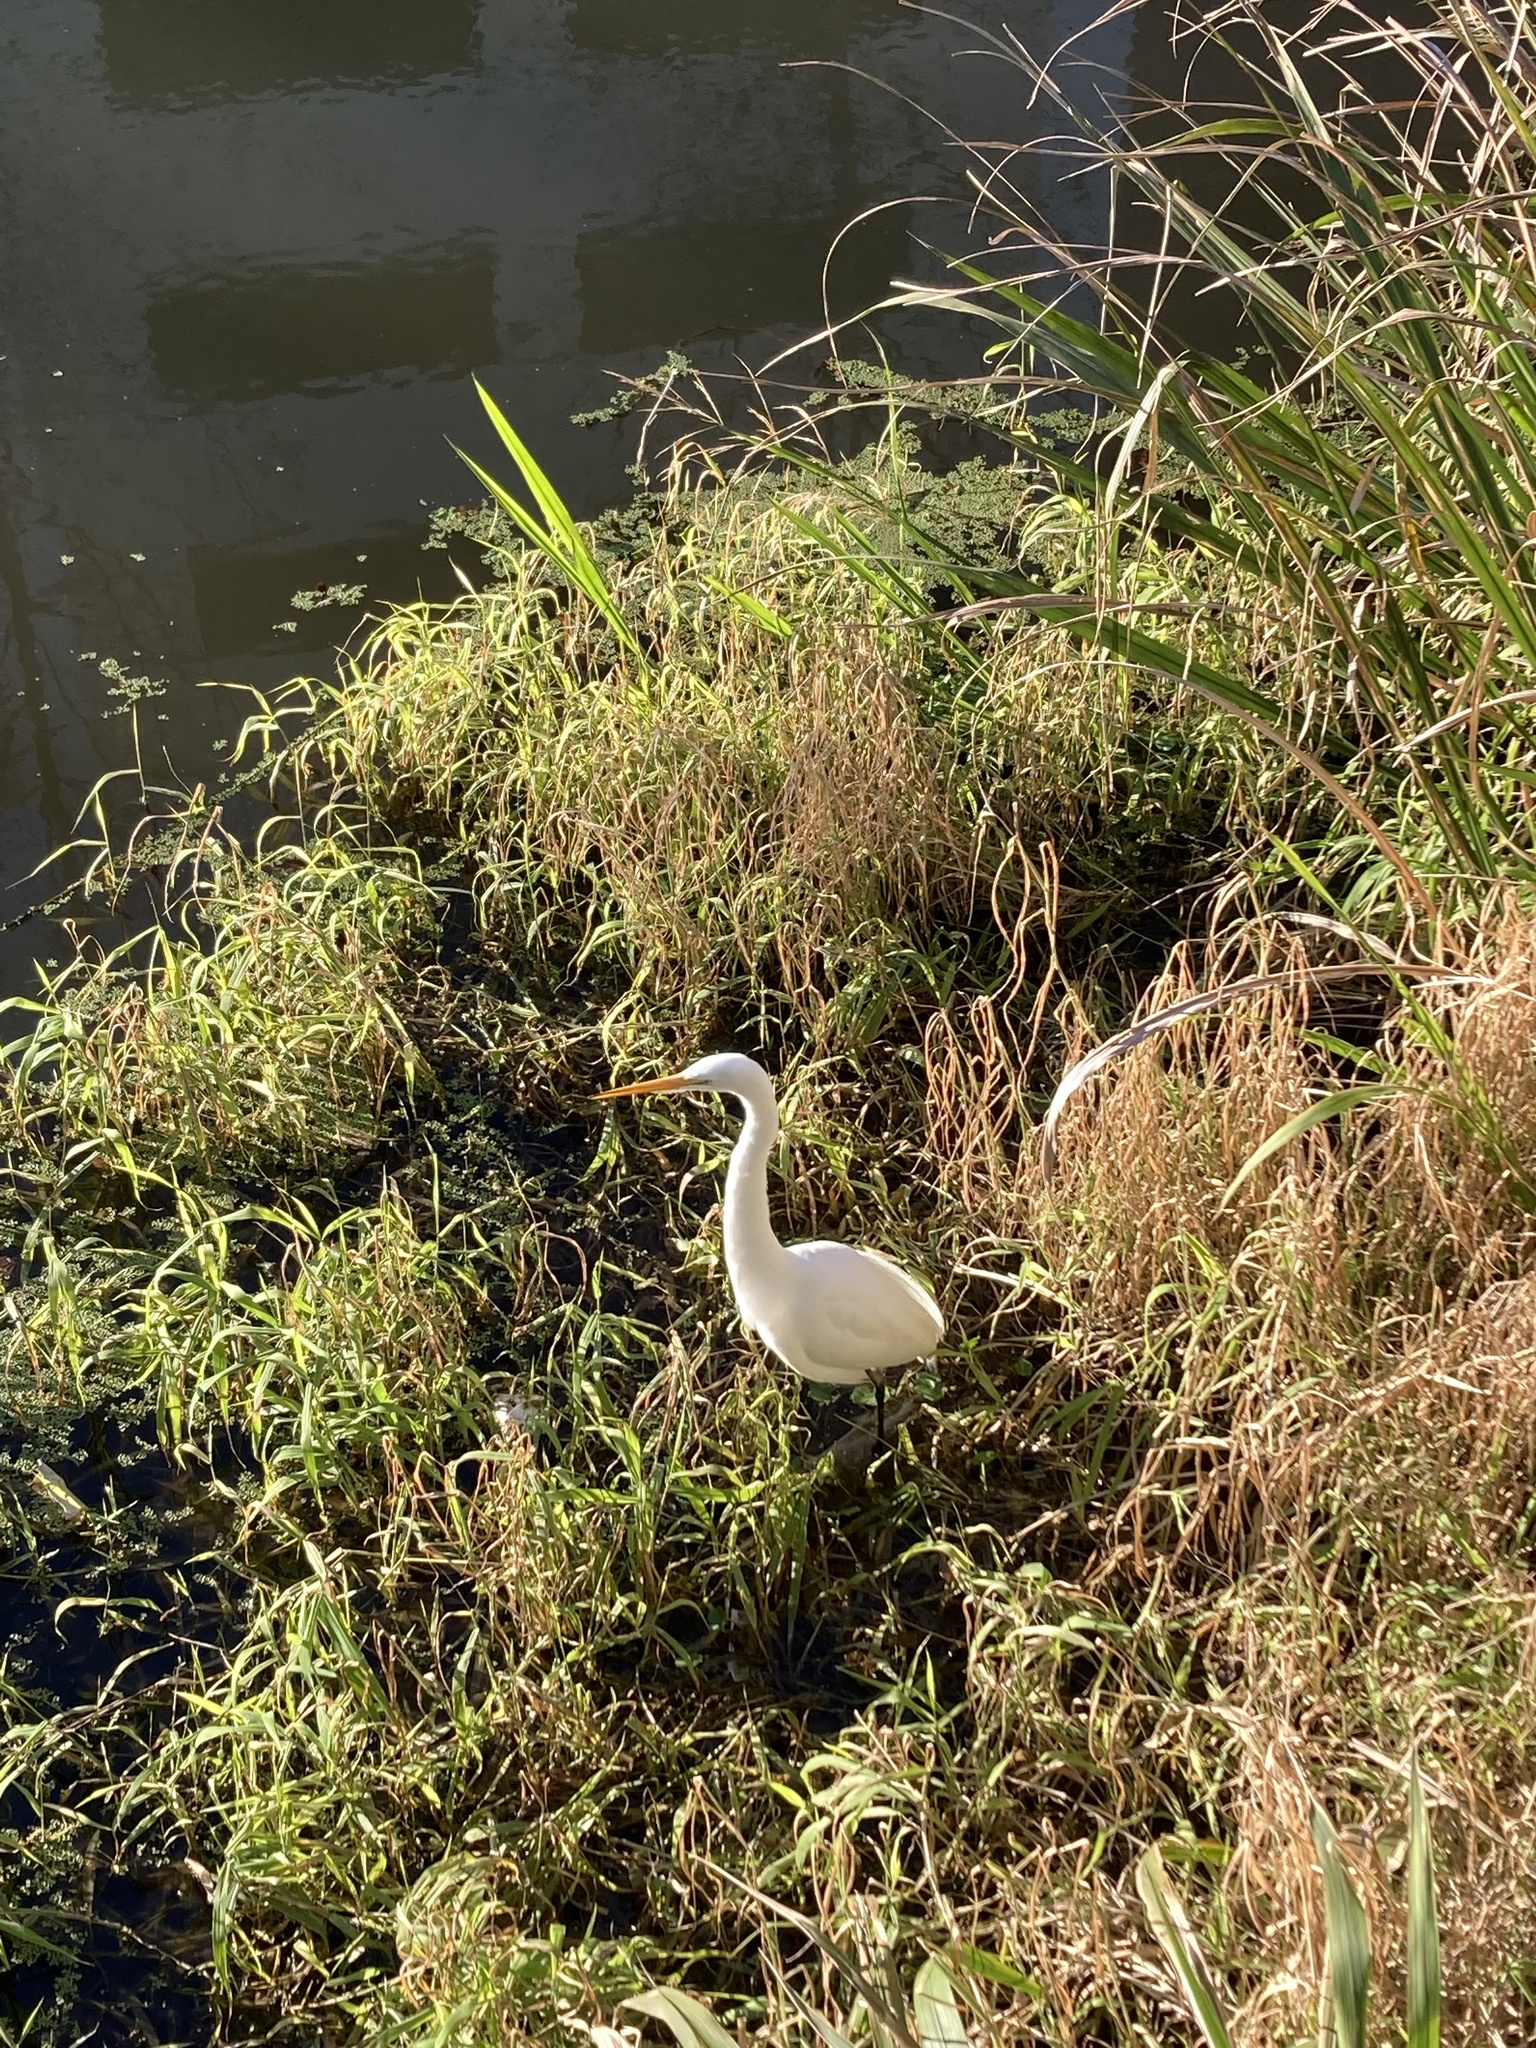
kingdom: Animalia
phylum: Chordata
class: Aves
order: Pelecaniformes
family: Ardeidae
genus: Ardea
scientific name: Ardea alba
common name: Great egret
